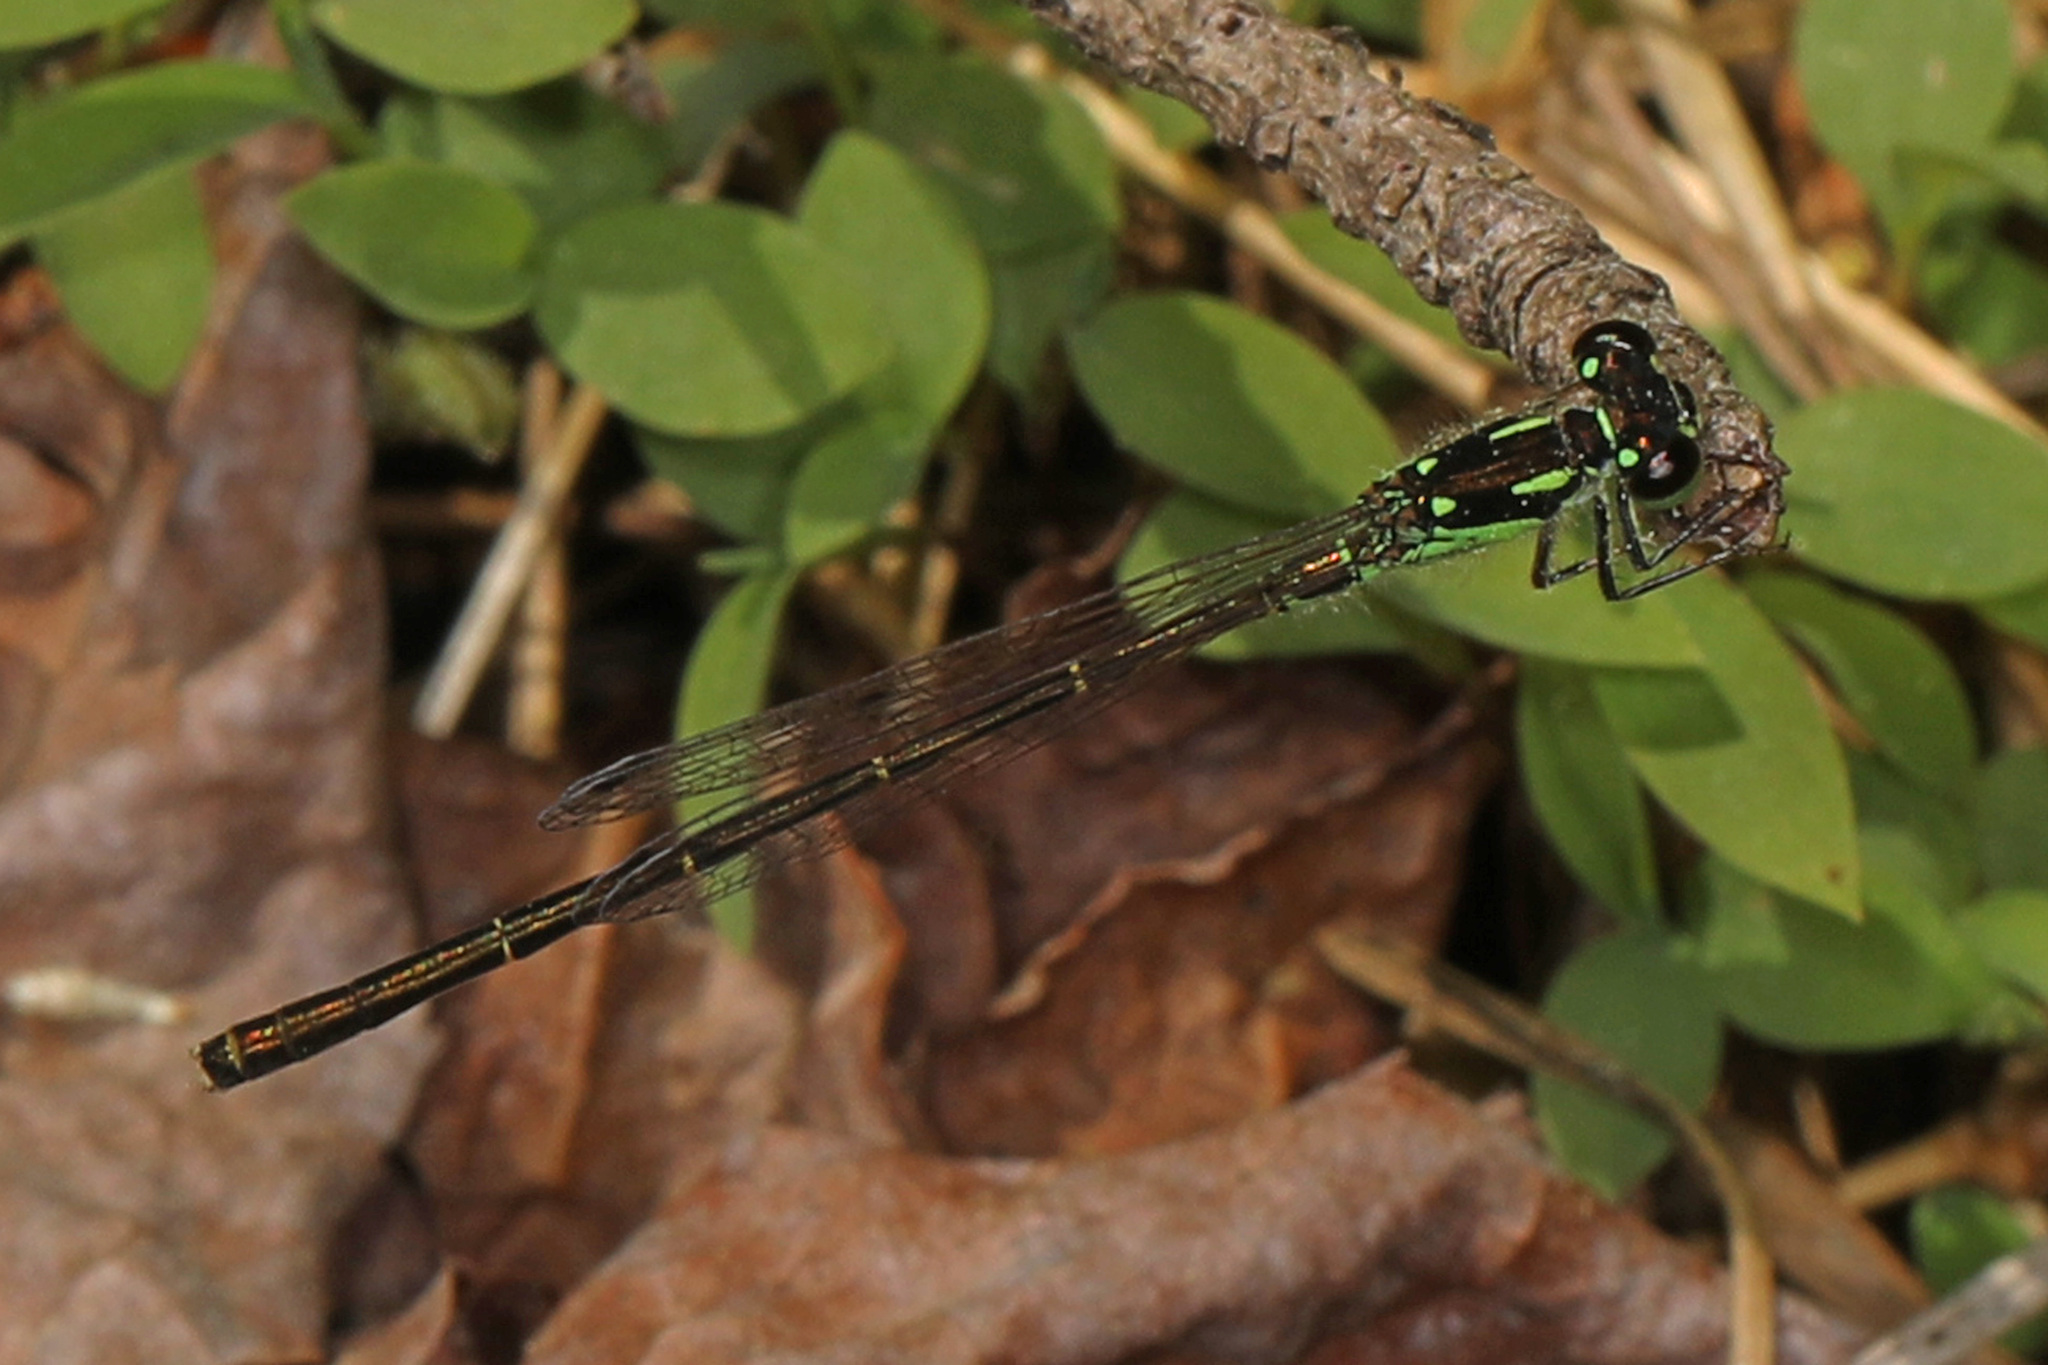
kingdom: Animalia
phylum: Arthropoda
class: Insecta
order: Odonata
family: Coenagrionidae
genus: Ischnura
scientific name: Ischnura posita
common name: Fragile forktail
